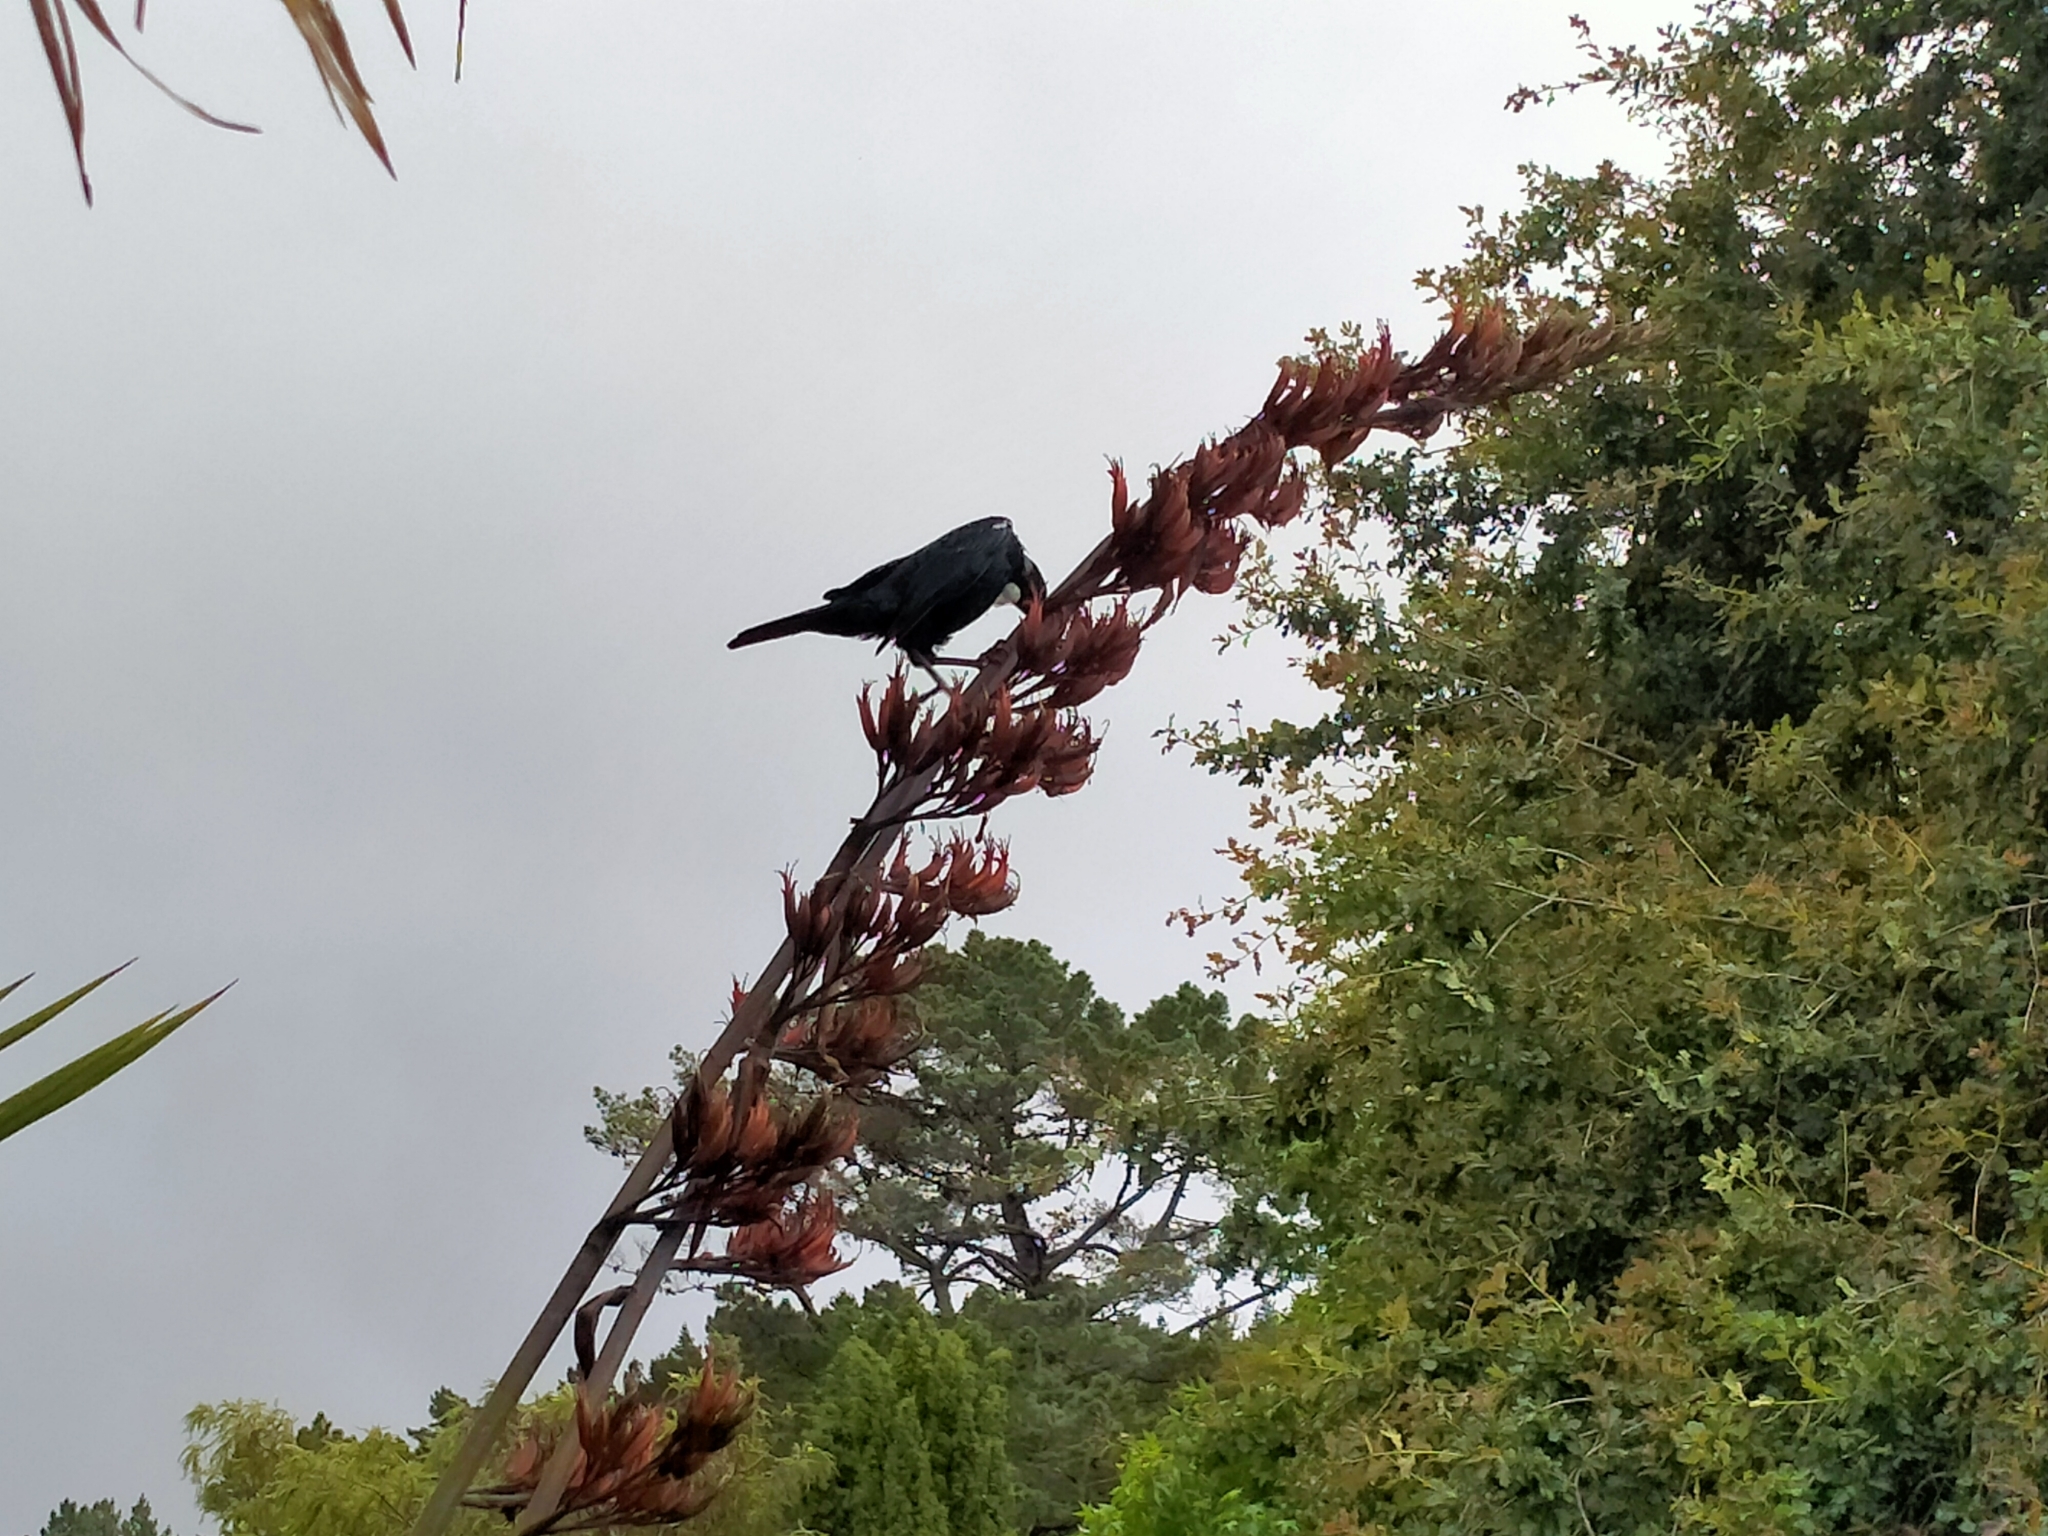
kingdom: Animalia
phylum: Chordata
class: Aves
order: Passeriformes
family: Meliphagidae
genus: Prosthemadera
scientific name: Prosthemadera novaeseelandiae
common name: Tui
